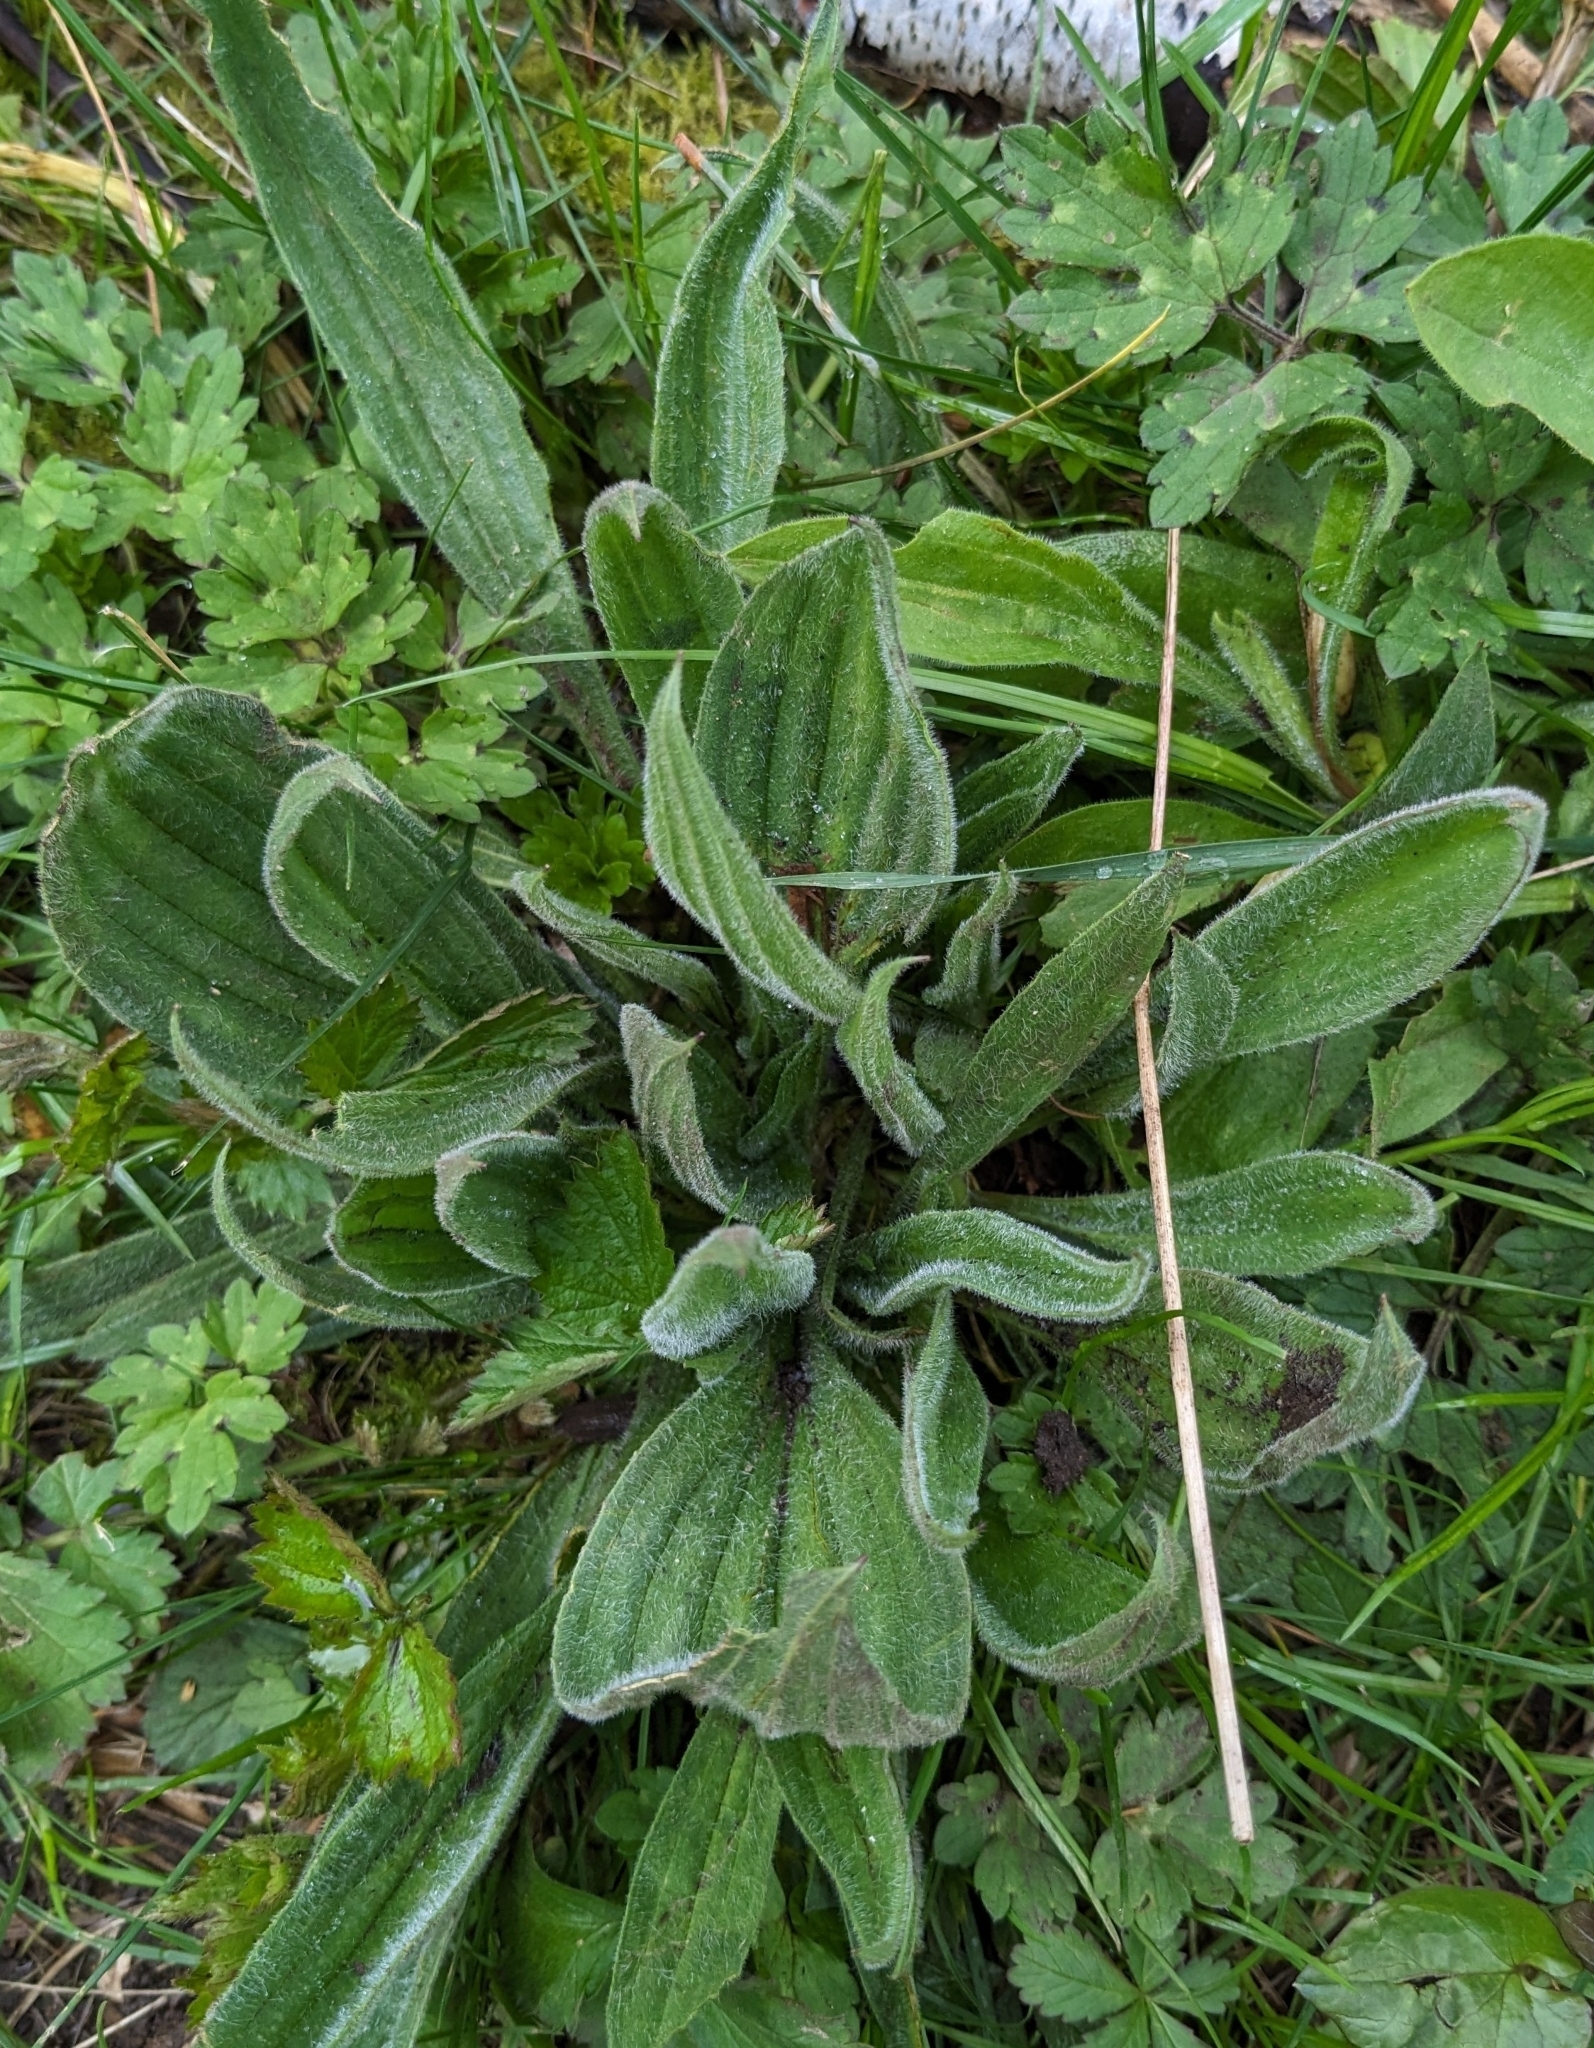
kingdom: Plantae
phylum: Tracheophyta
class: Magnoliopsida
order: Lamiales
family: Plantaginaceae
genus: Plantago
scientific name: Plantago lanceolata
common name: Ribwort plantain
